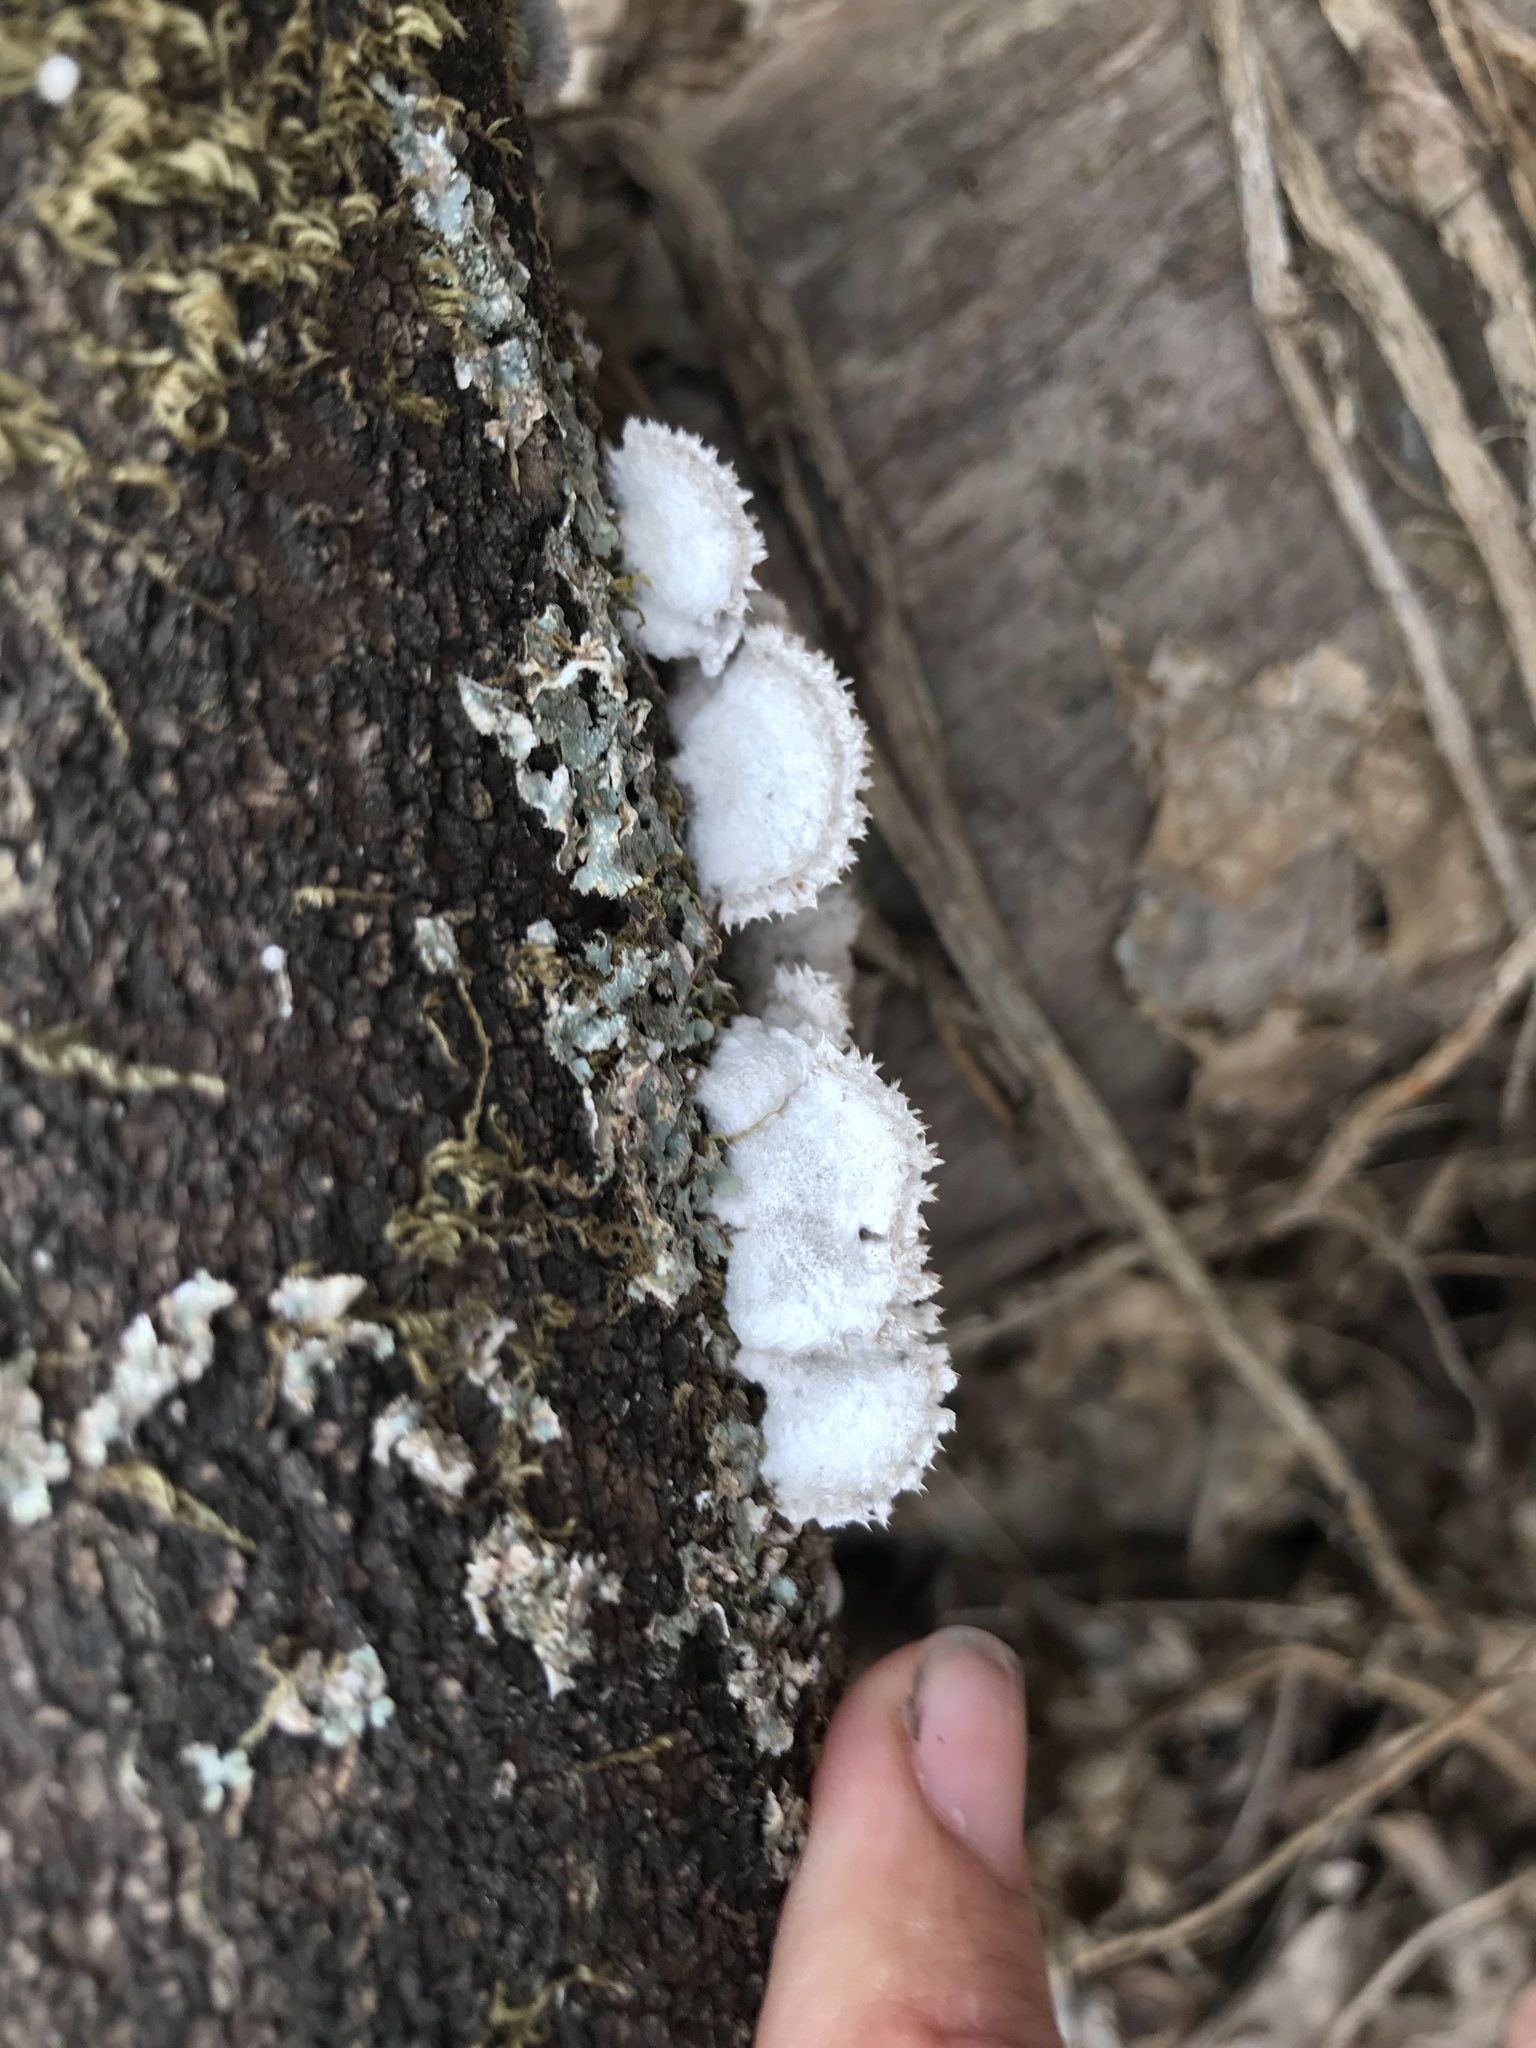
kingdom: Fungi
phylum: Basidiomycota
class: Agaricomycetes
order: Agaricales
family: Schizophyllaceae
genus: Schizophyllum
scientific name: Schizophyllum commune
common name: Common porecrust
